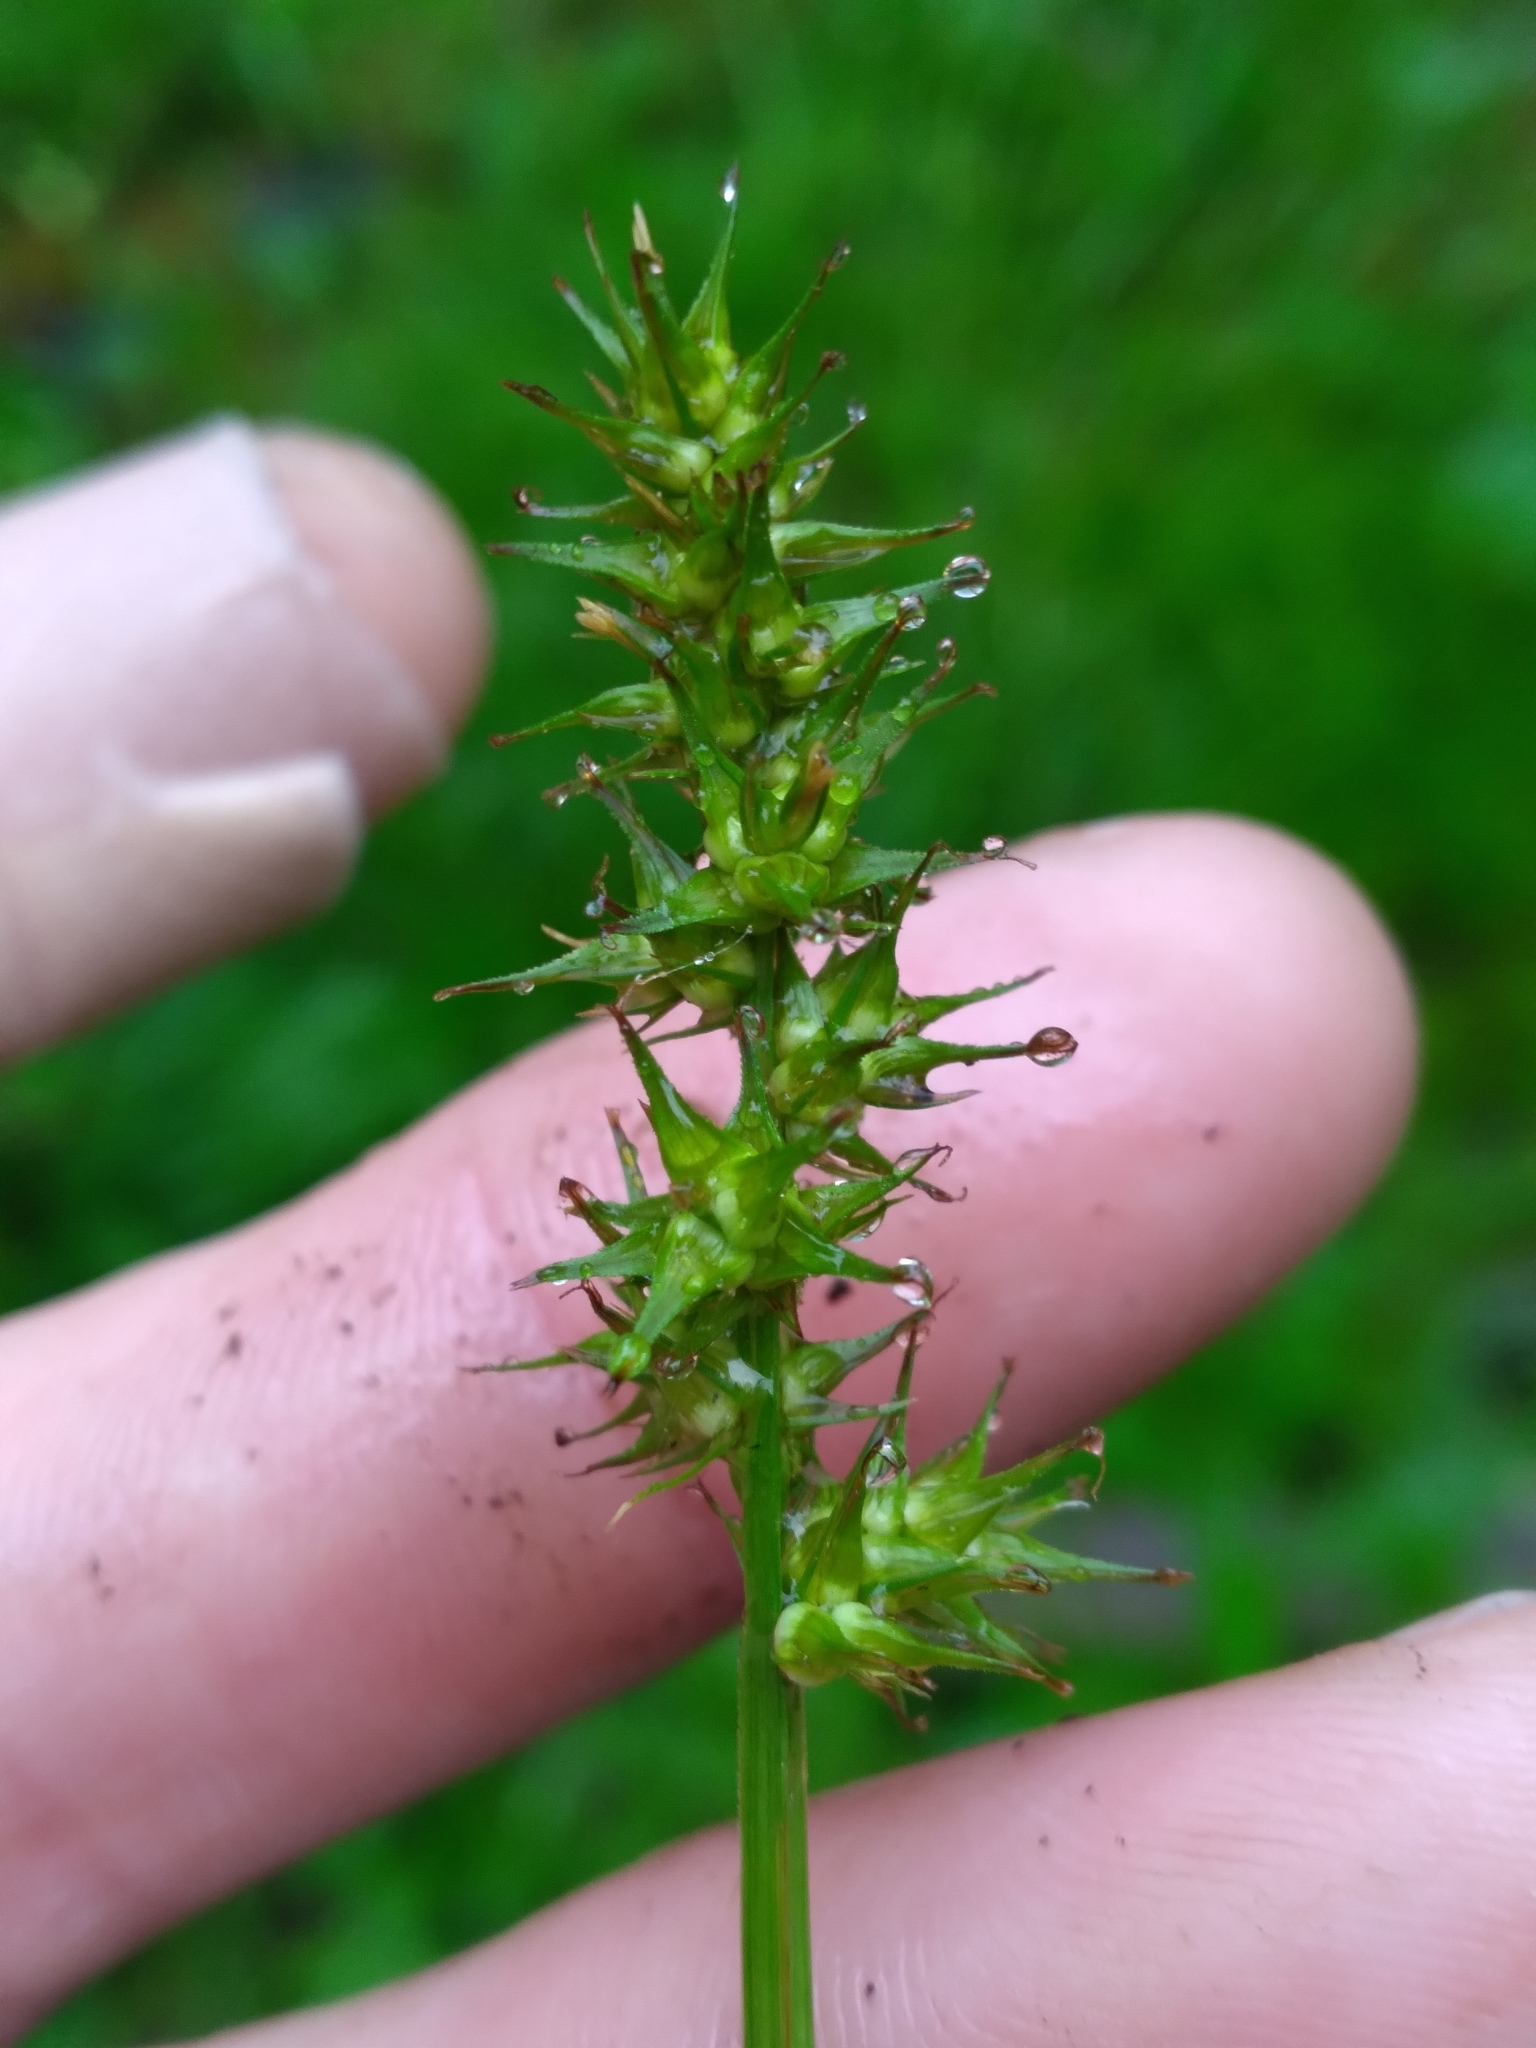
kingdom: Plantae
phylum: Tracheophyta
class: Liliopsida
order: Poales
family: Cyperaceae
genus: Carex
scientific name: Carex laevivaginata
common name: Smooth-sheathed fox sedge
